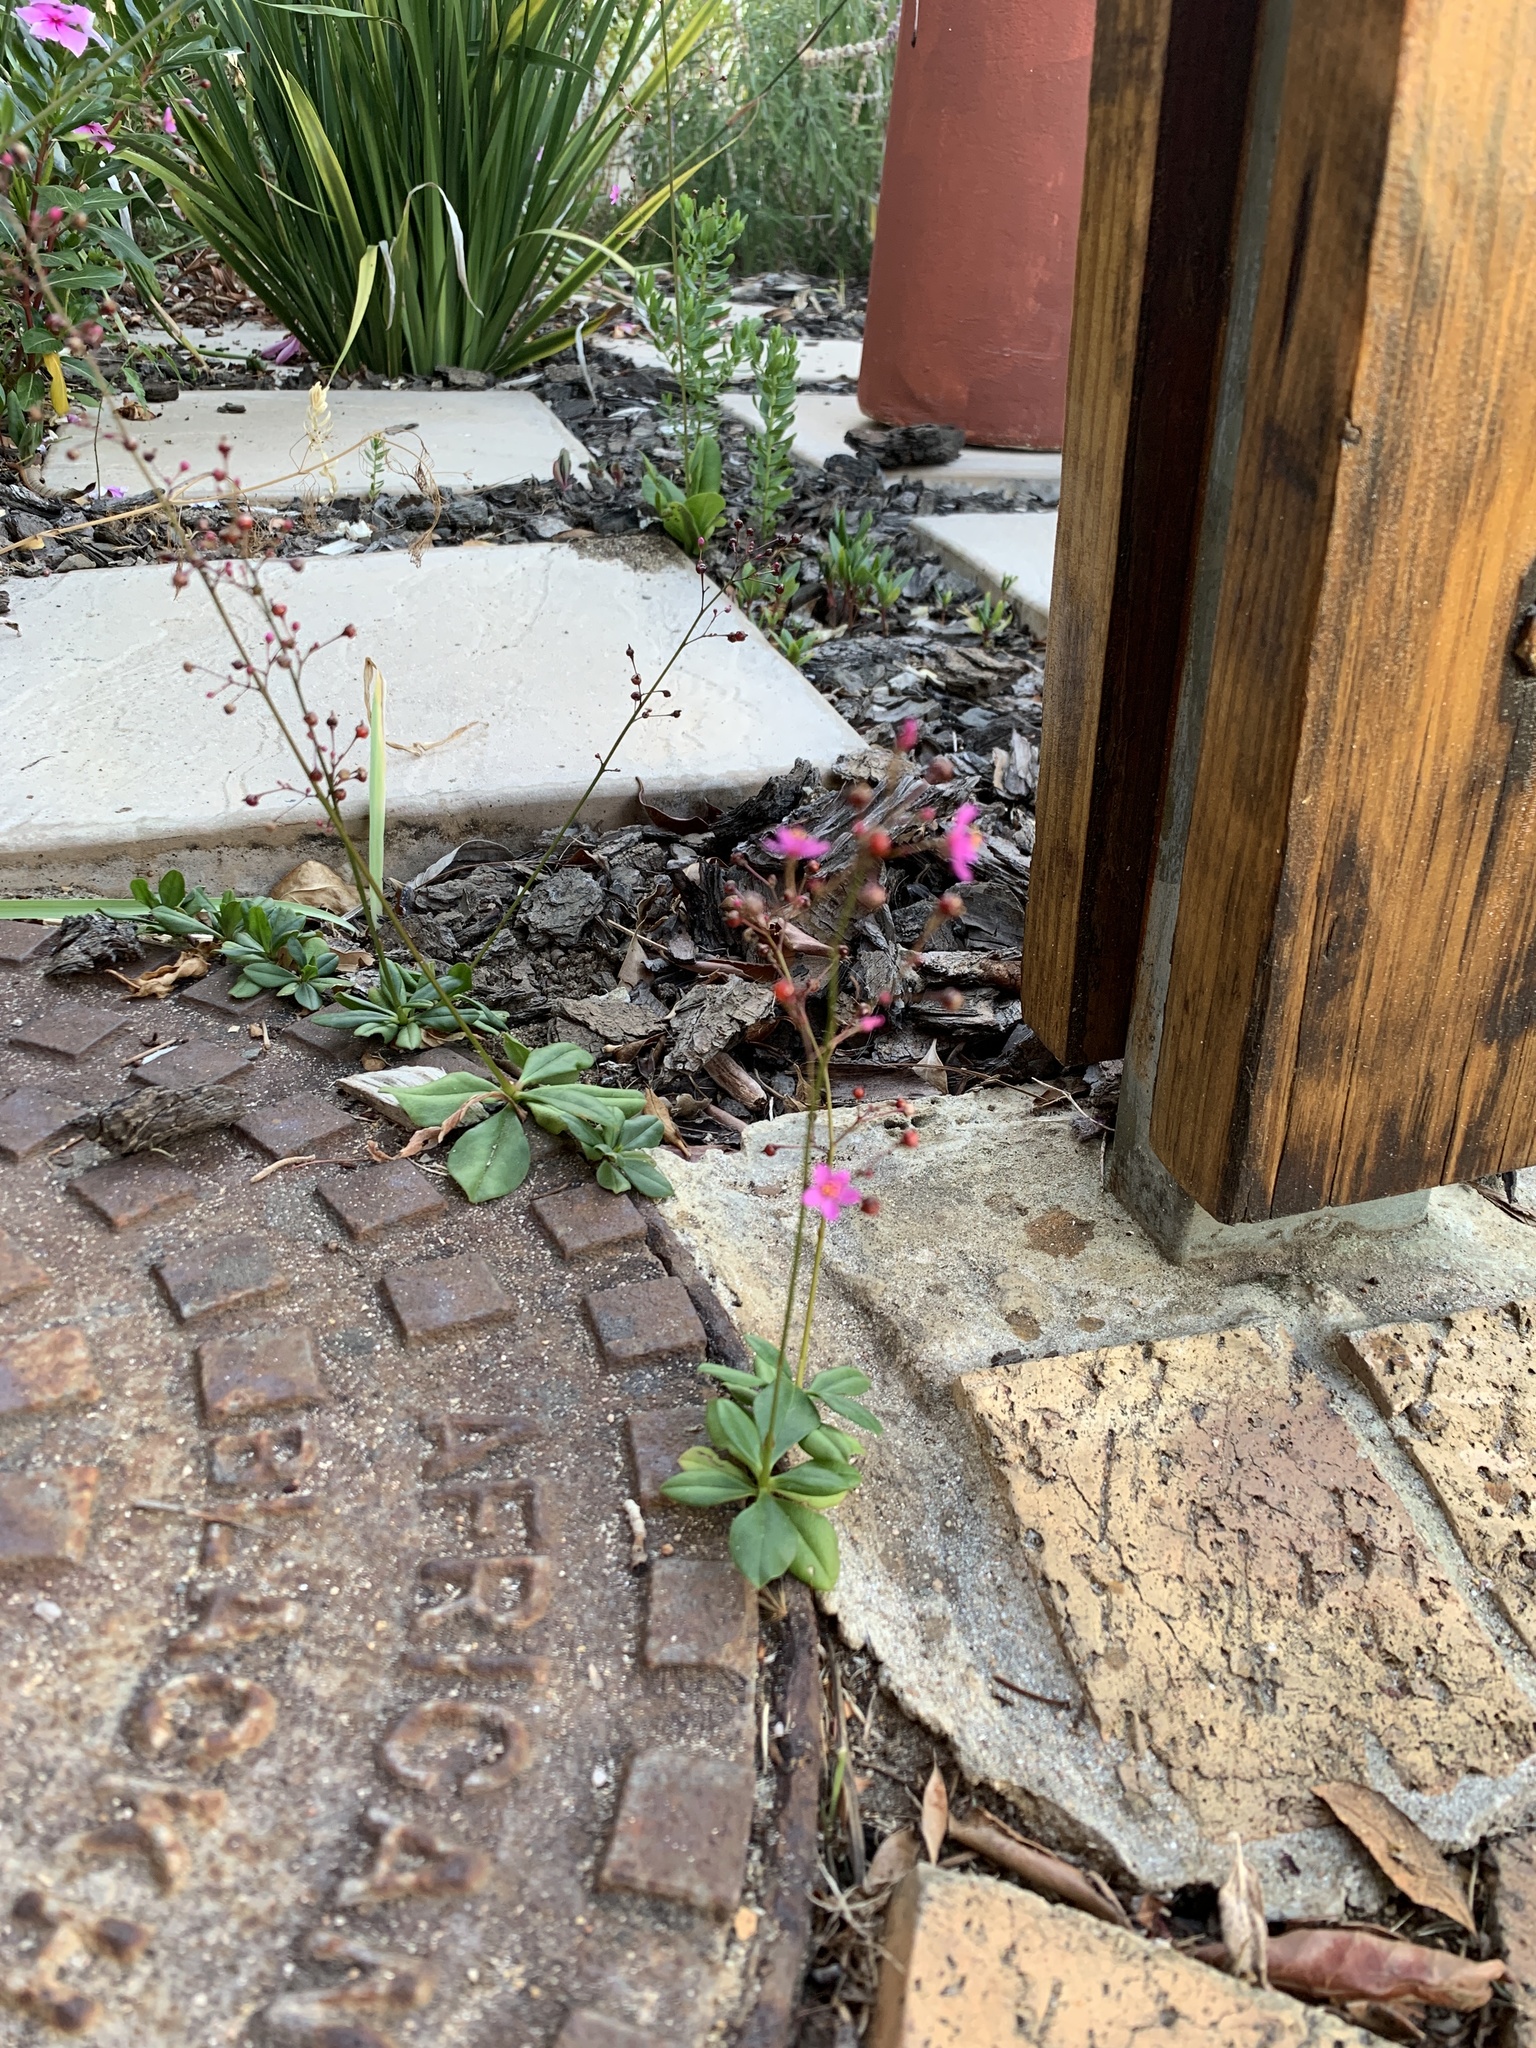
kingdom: Plantae
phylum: Tracheophyta
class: Magnoliopsida
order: Caryophyllales
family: Talinaceae
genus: Talinum
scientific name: Talinum paniculatum
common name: Jewels of opar
